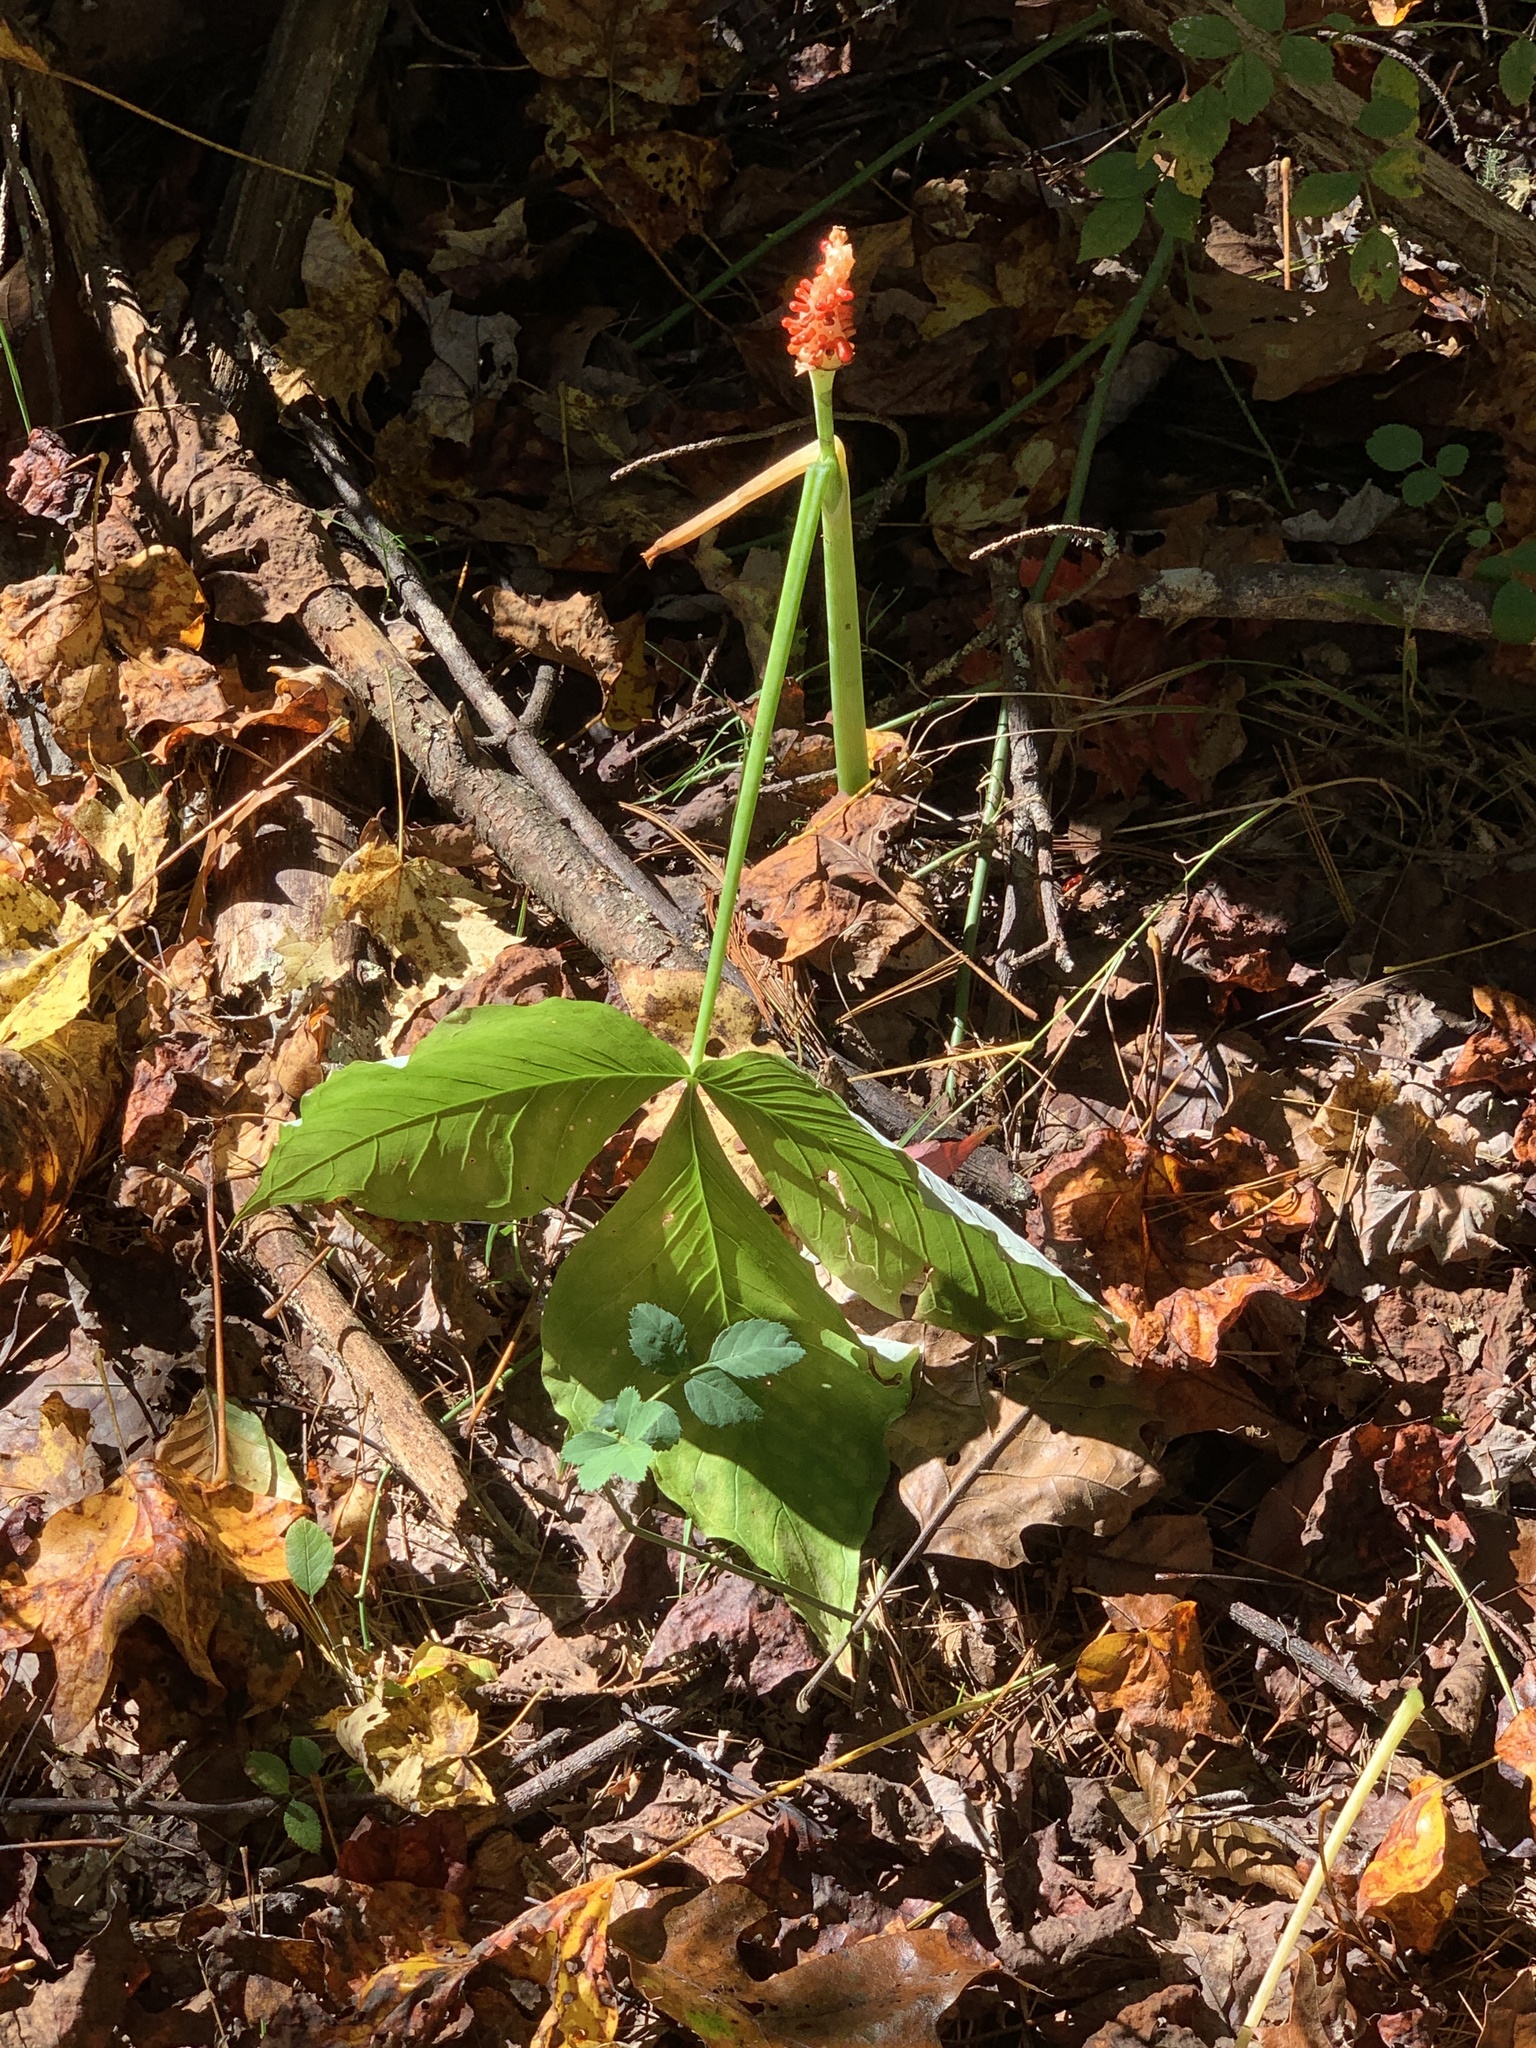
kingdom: Plantae
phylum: Tracheophyta
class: Liliopsida
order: Alismatales
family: Araceae
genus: Arisaema
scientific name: Arisaema triphyllum
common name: Jack-in-the-pulpit
